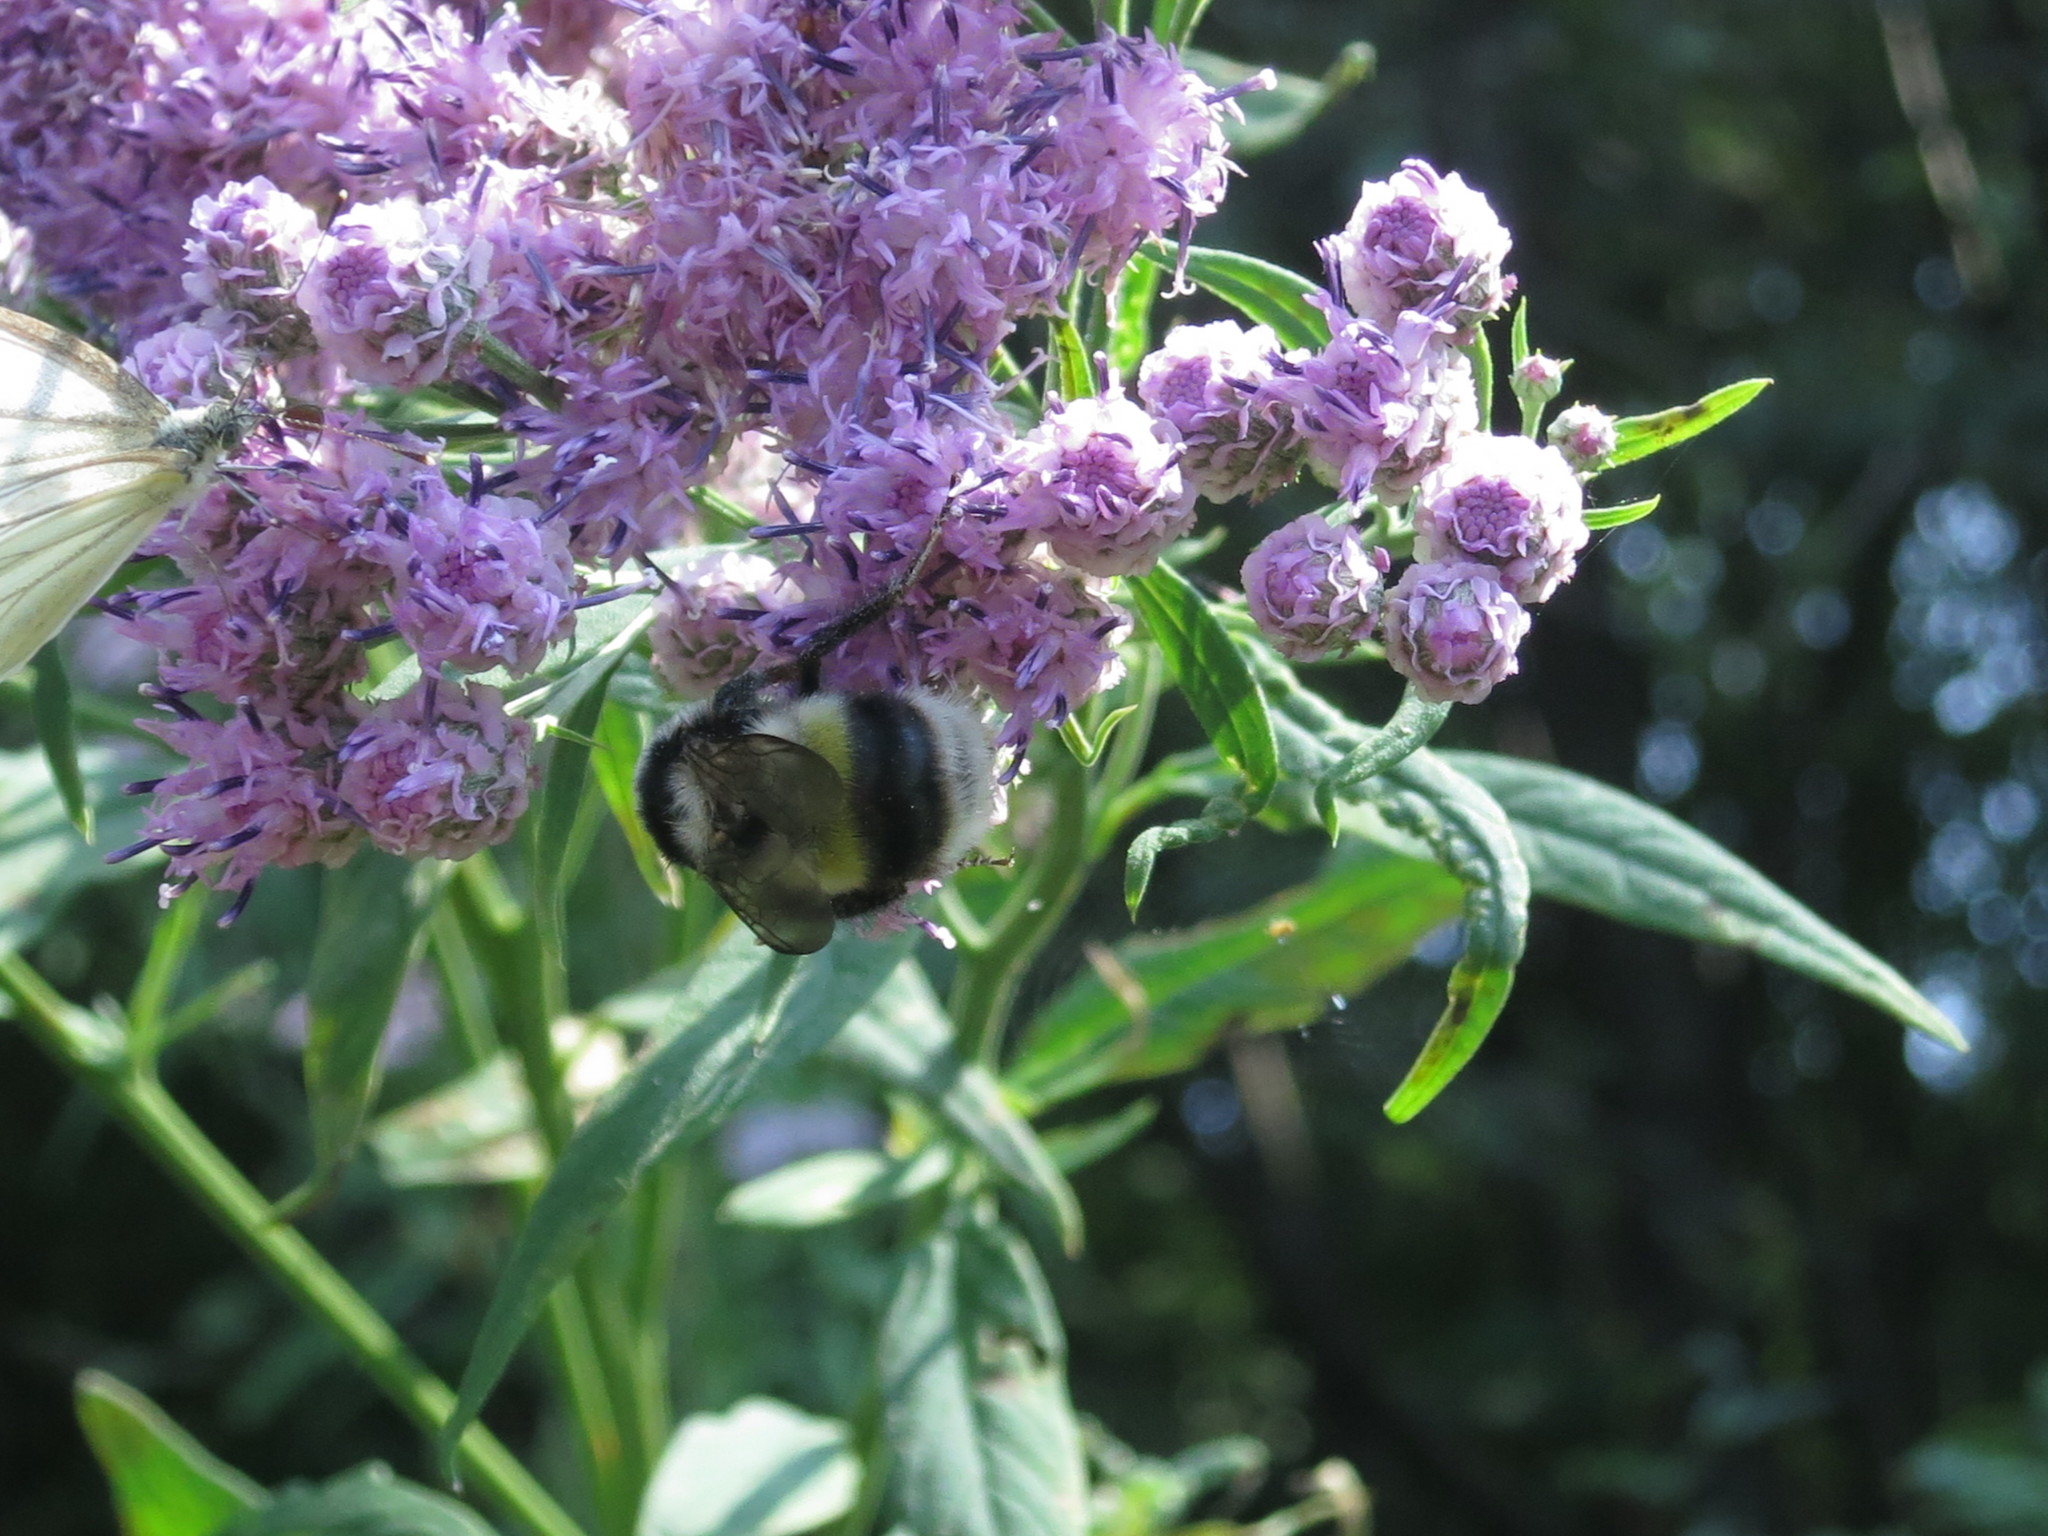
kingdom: Animalia
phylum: Arthropoda
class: Insecta
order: Hymenoptera
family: Apidae
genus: Bombus
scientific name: Bombus patagiatus
